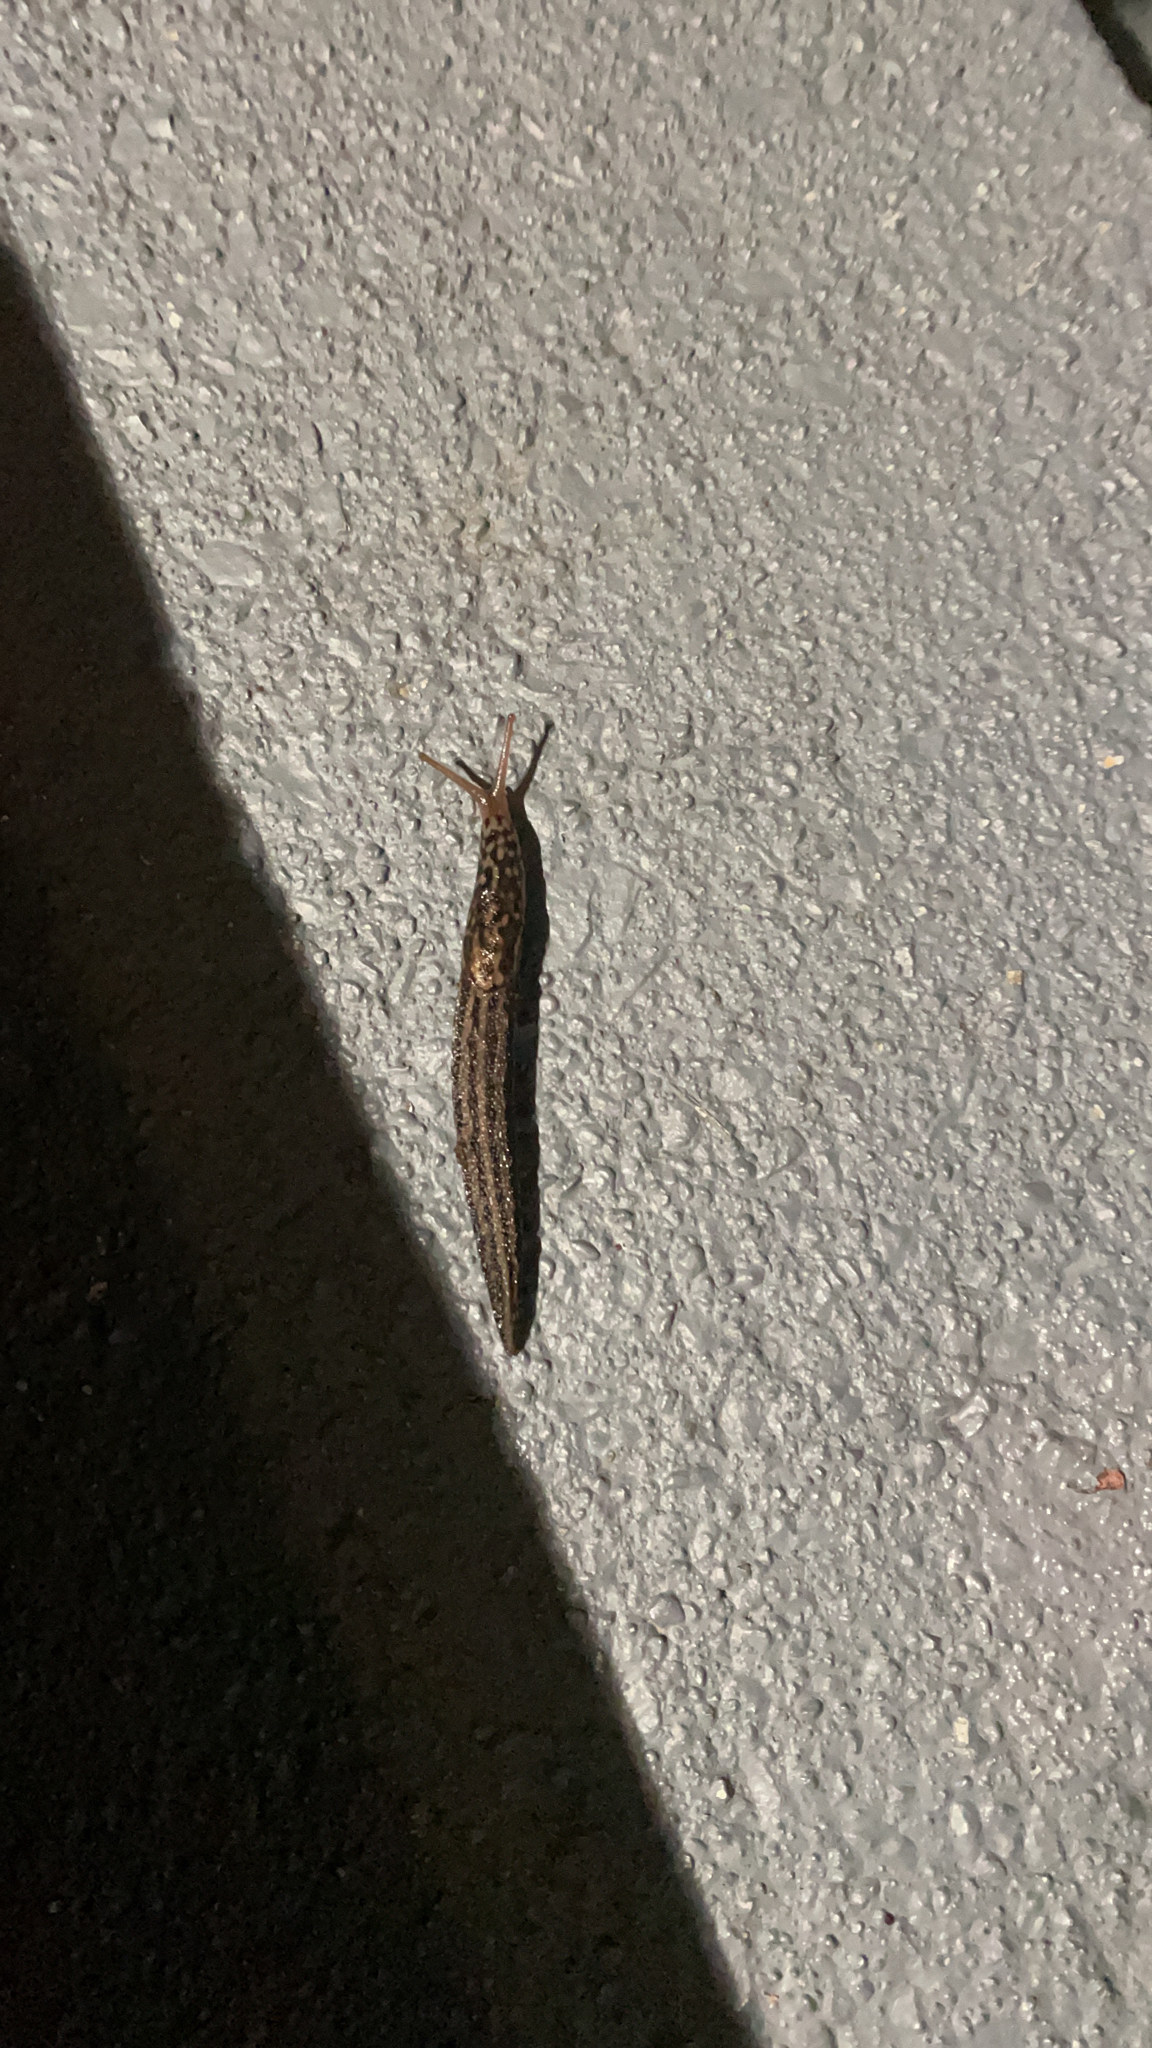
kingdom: Animalia
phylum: Mollusca
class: Gastropoda
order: Stylommatophora
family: Limacidae
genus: Limax
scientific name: Limax maximus
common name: Great grey slug
